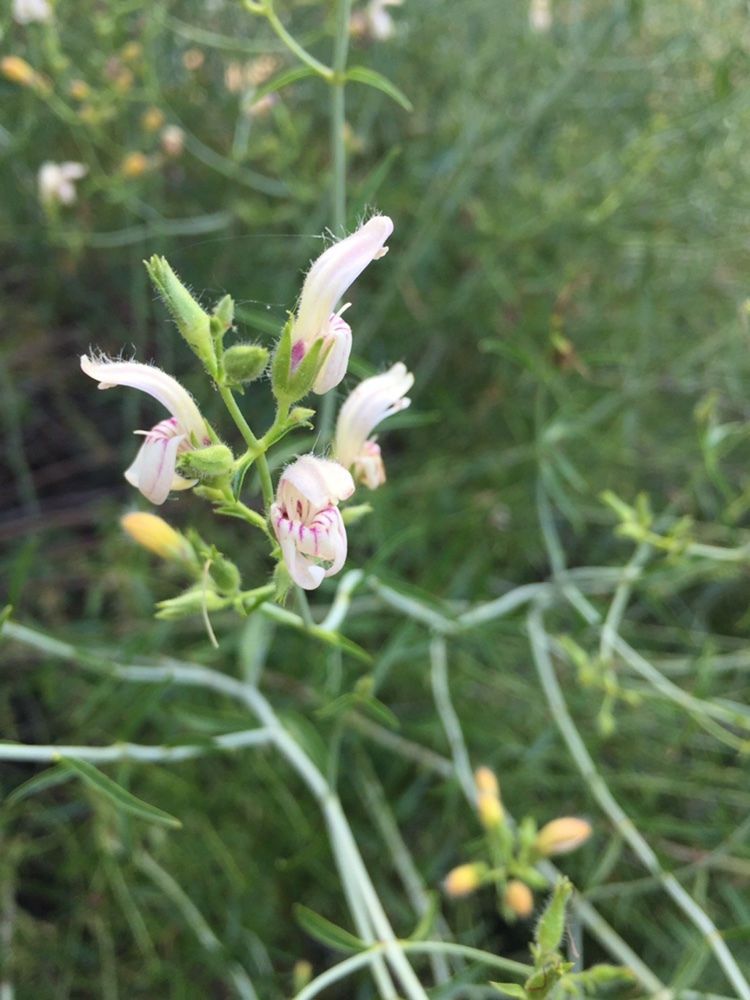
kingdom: Plantae
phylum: Tracheophyta
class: Magnoliopsida
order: Lamiales
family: Plantaginaceae
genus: Keckiella
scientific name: Keckiella breviflora
